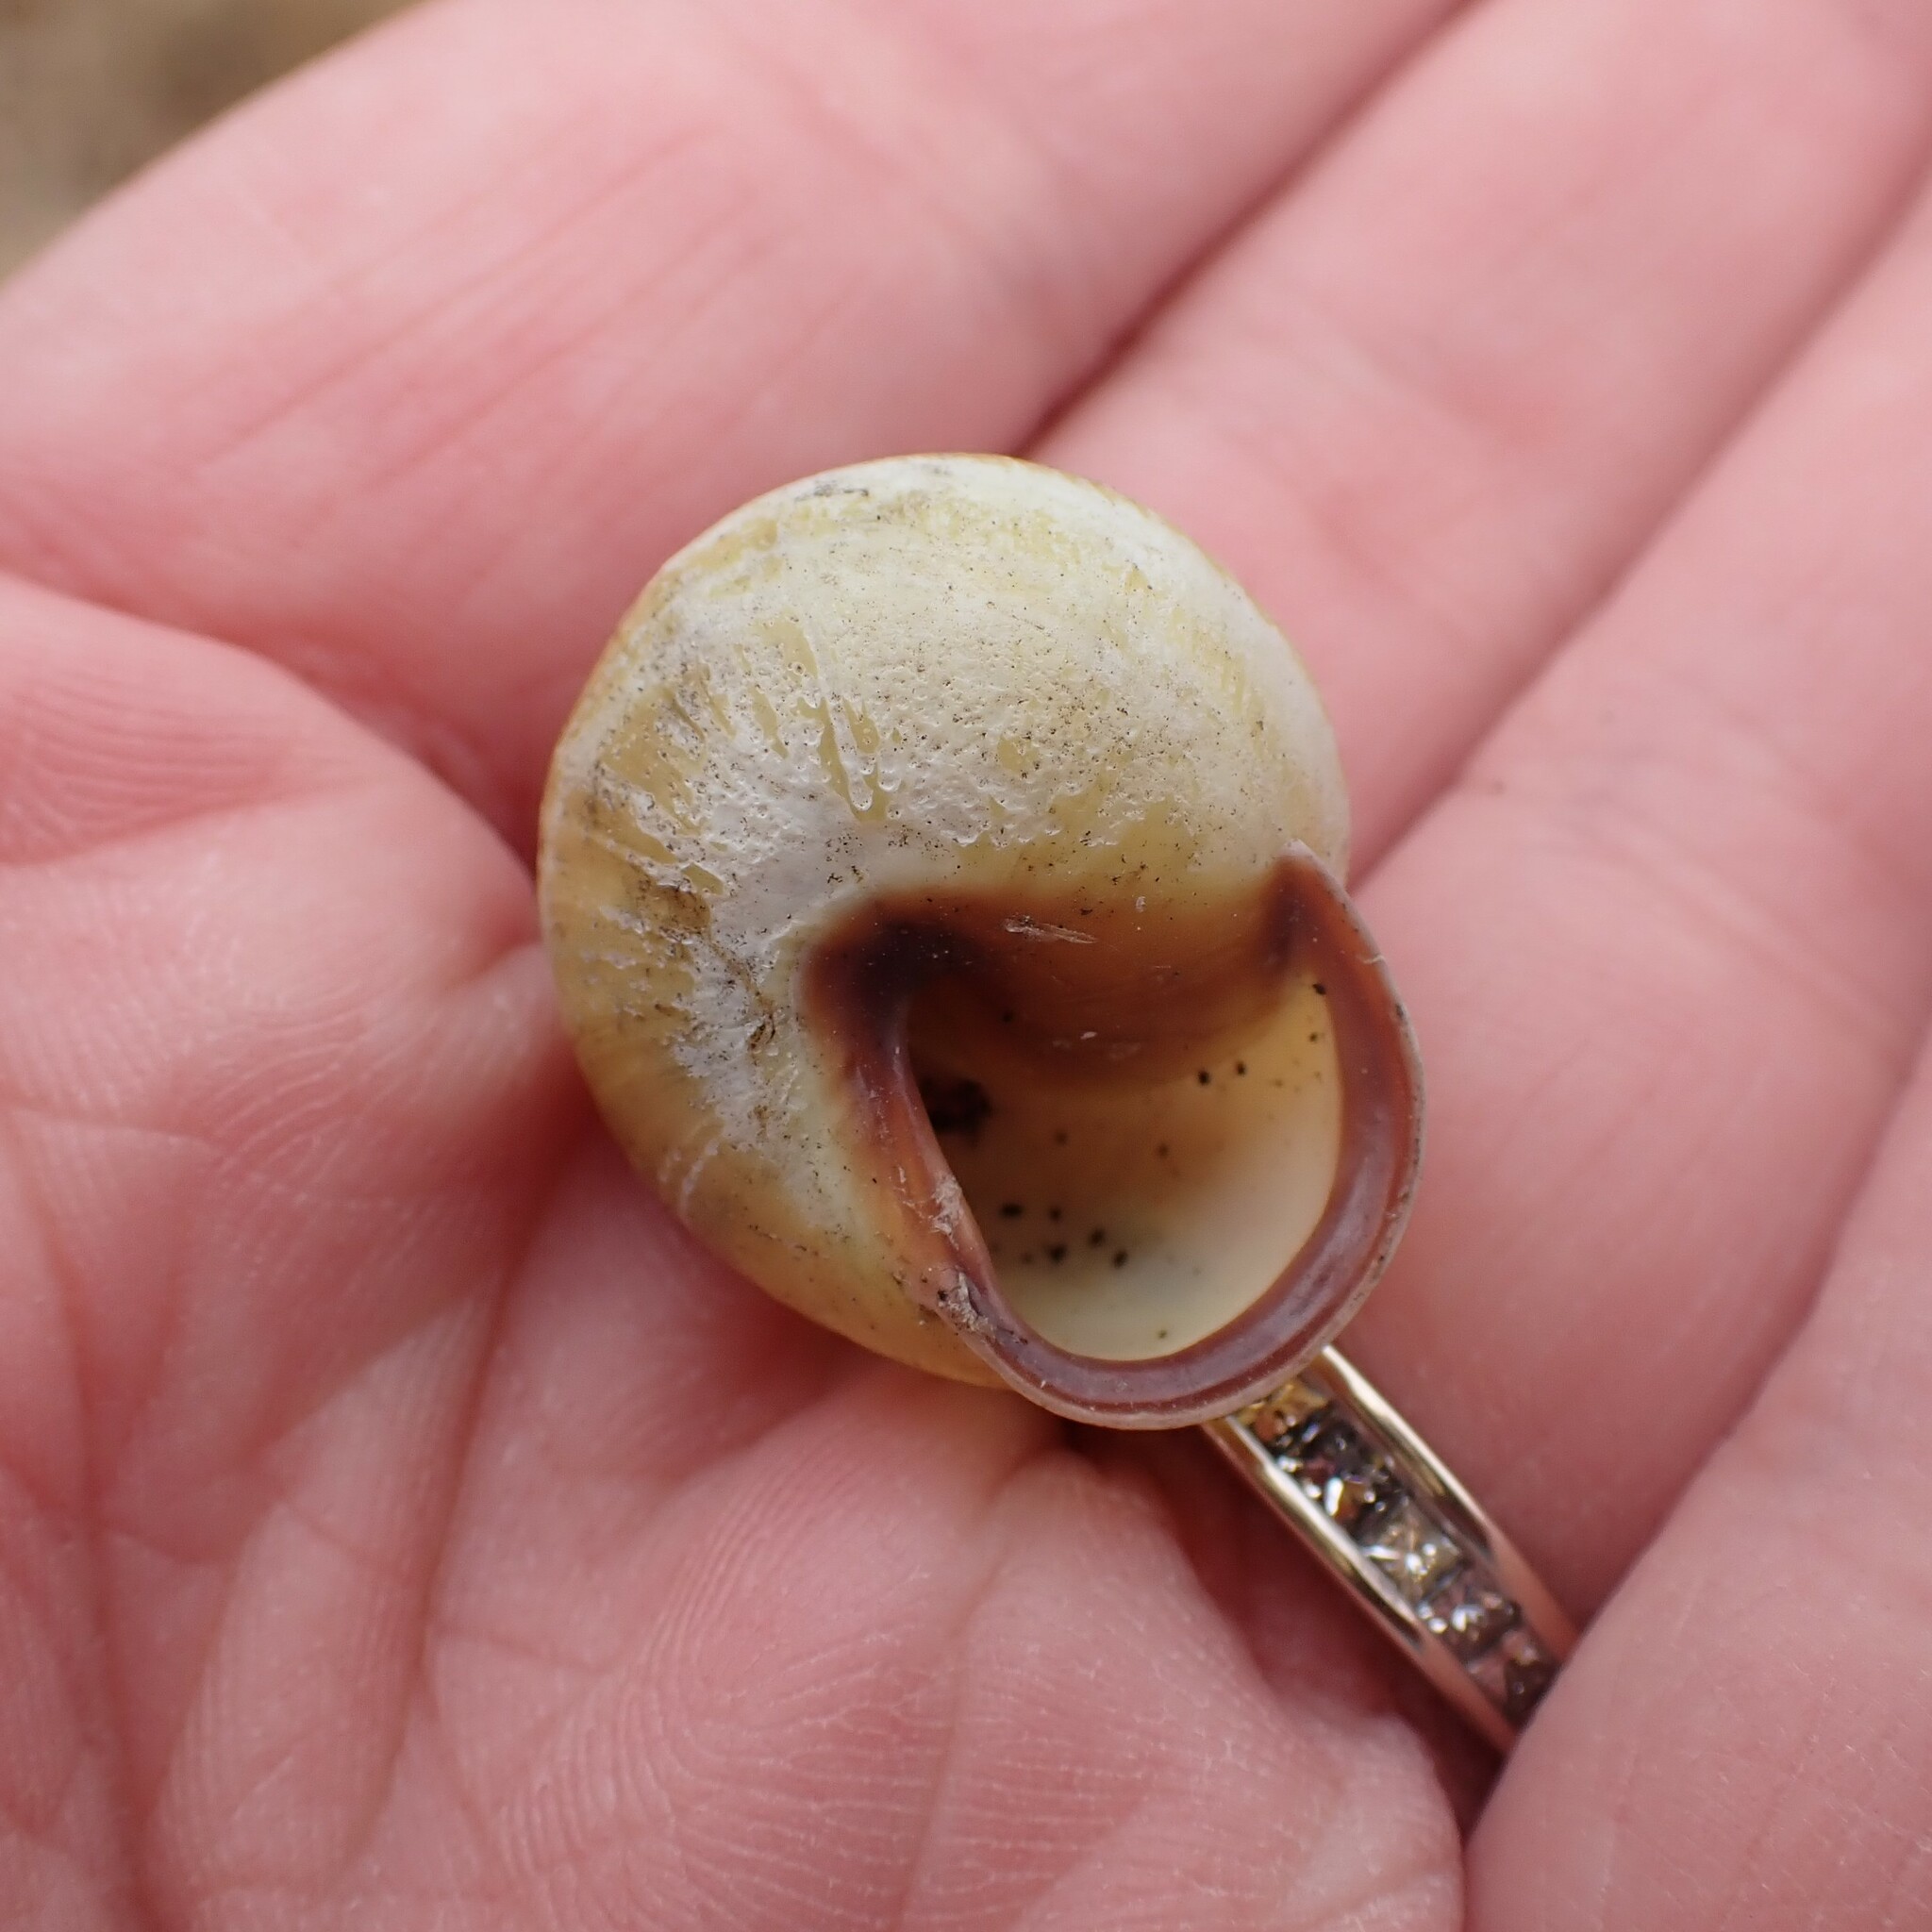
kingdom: Animalia
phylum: Mollusca
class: Gastropoda
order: Stylommatophora
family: Helicidae
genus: Cepaea
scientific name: Cepaea nemoralis
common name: Grovesnail
